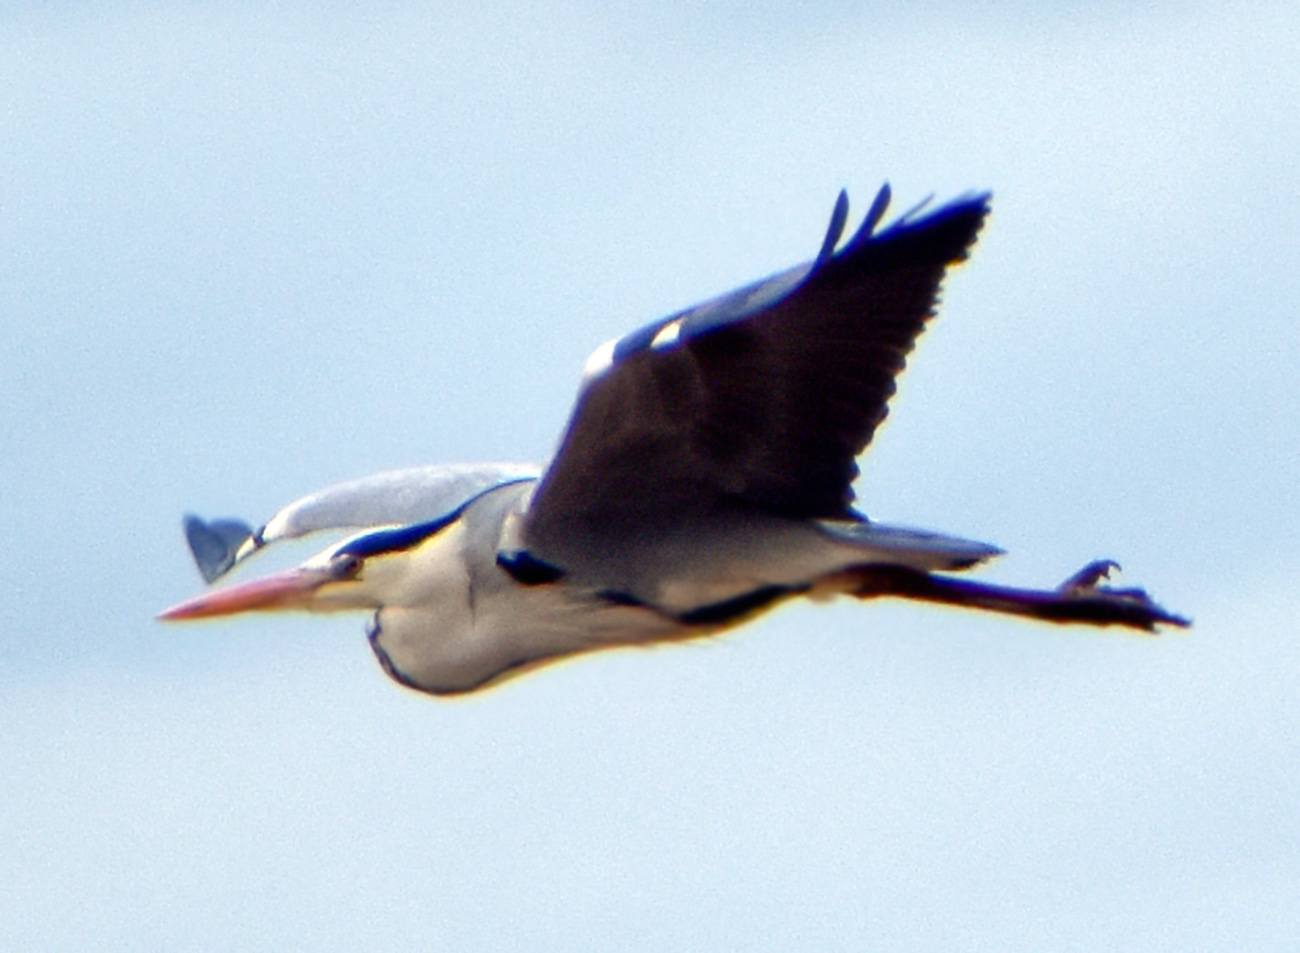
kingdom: Animalia
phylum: Chordata
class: Aves
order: Pelecaniformes
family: Ardeidae
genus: Ardea
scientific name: Ardea cinerea
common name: Grey heron
